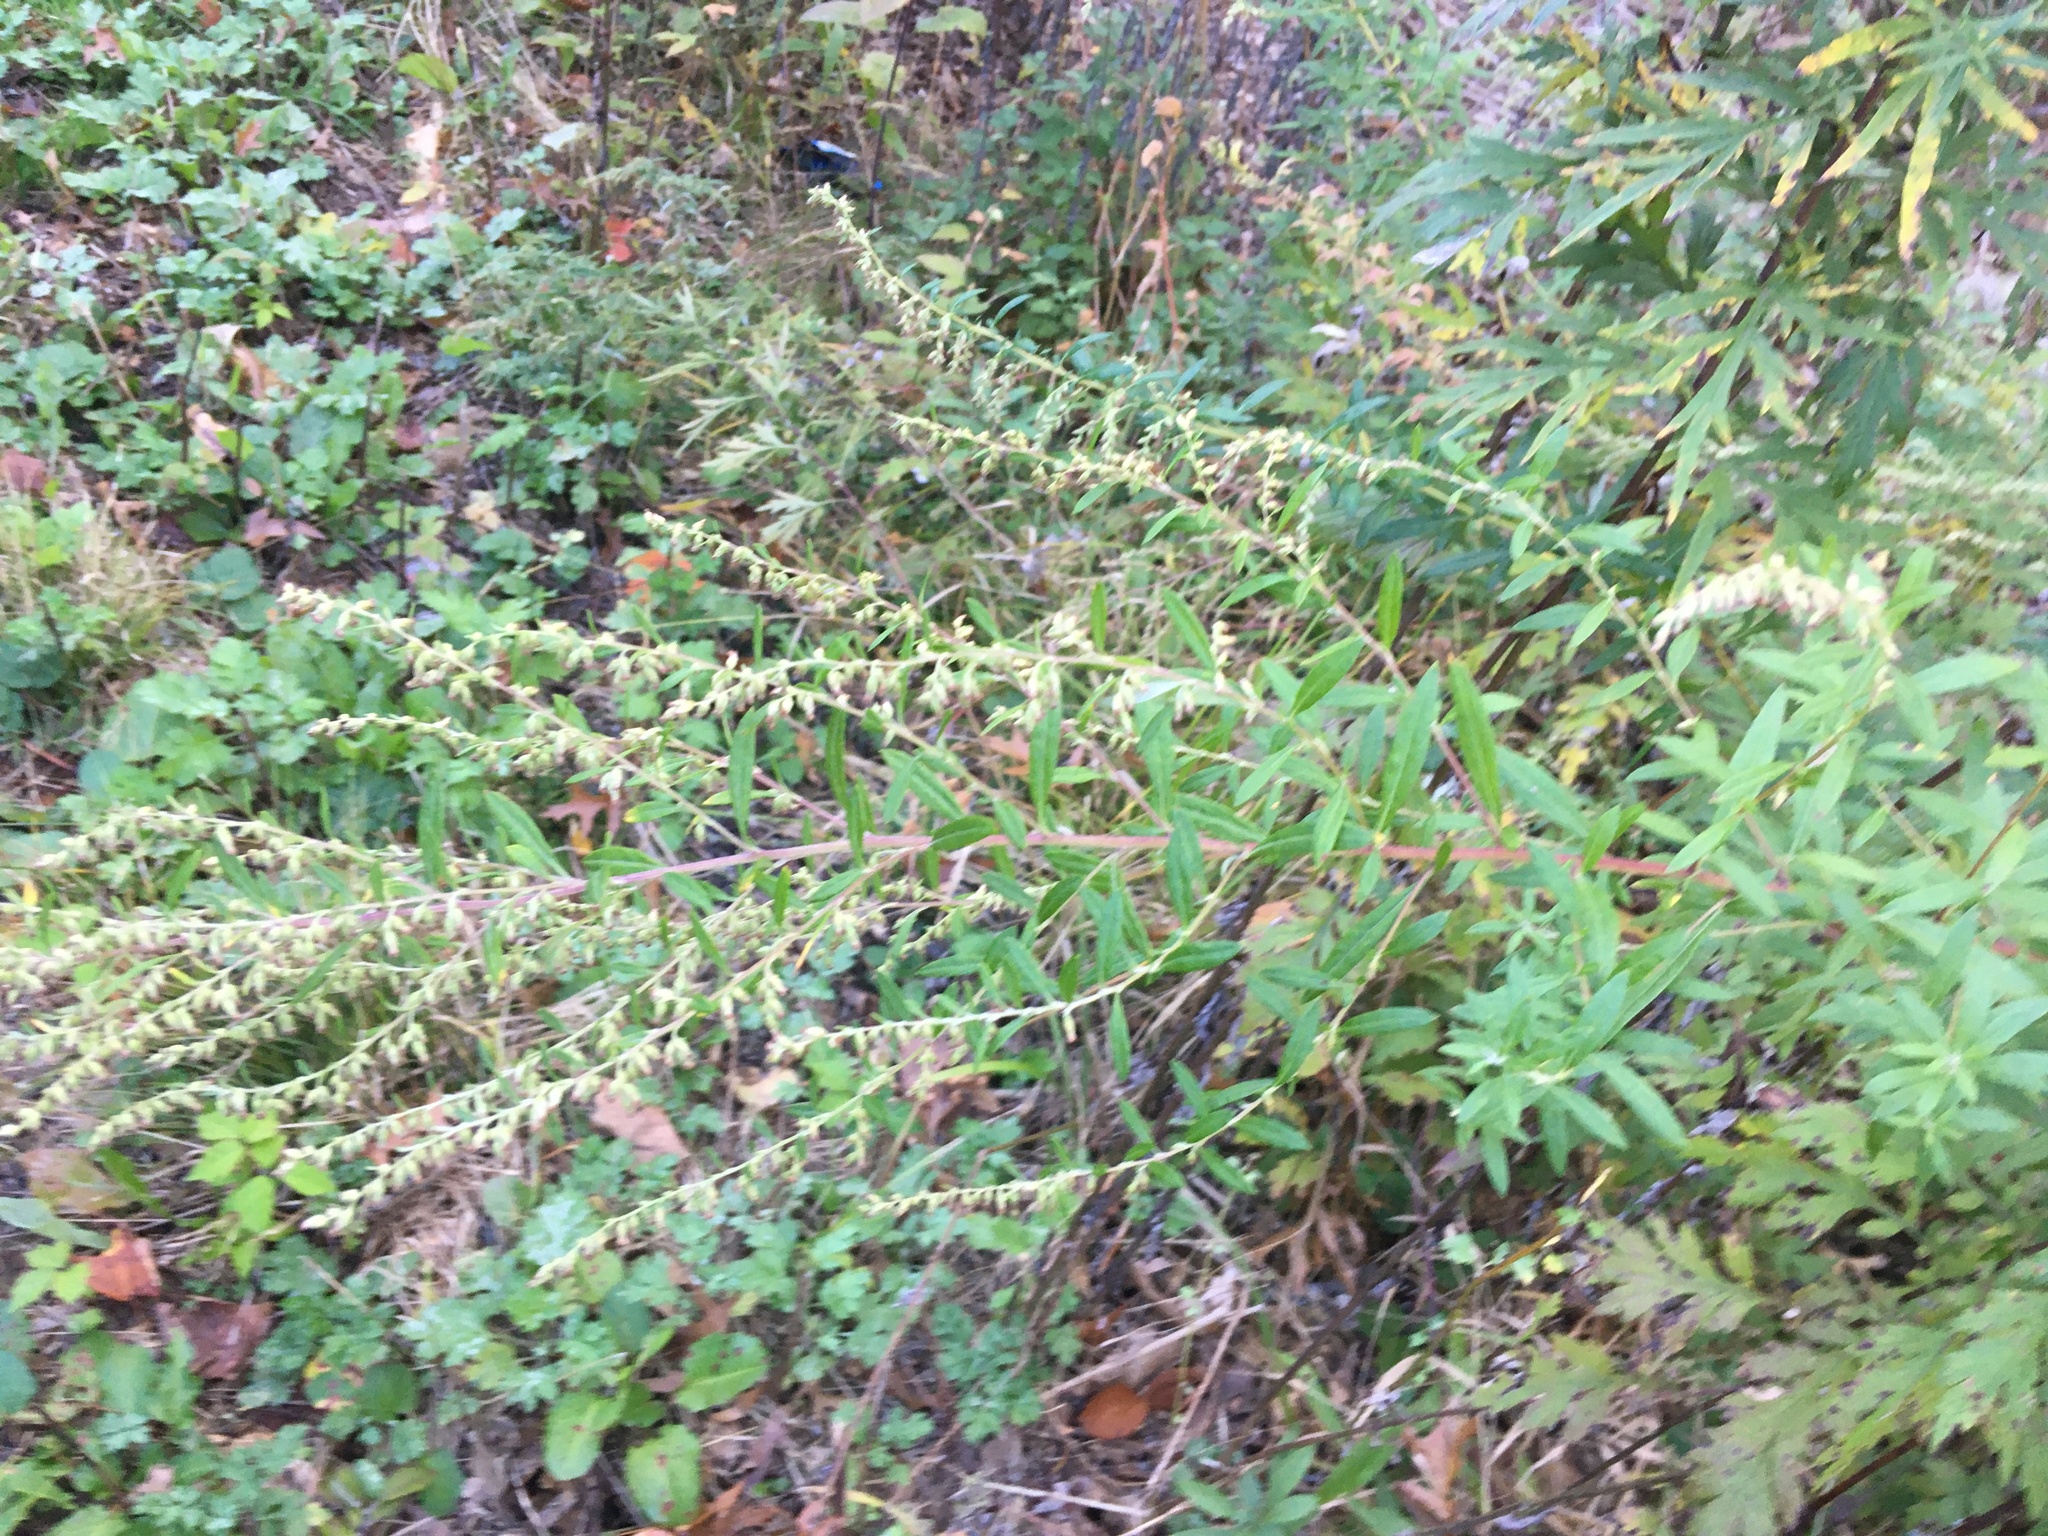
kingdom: Plantae
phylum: Tracheophyta
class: Magnoliopsida
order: Asterales
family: Asteraceae
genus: Artemisia
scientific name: Artemisia vulgaris
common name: Mugwort
